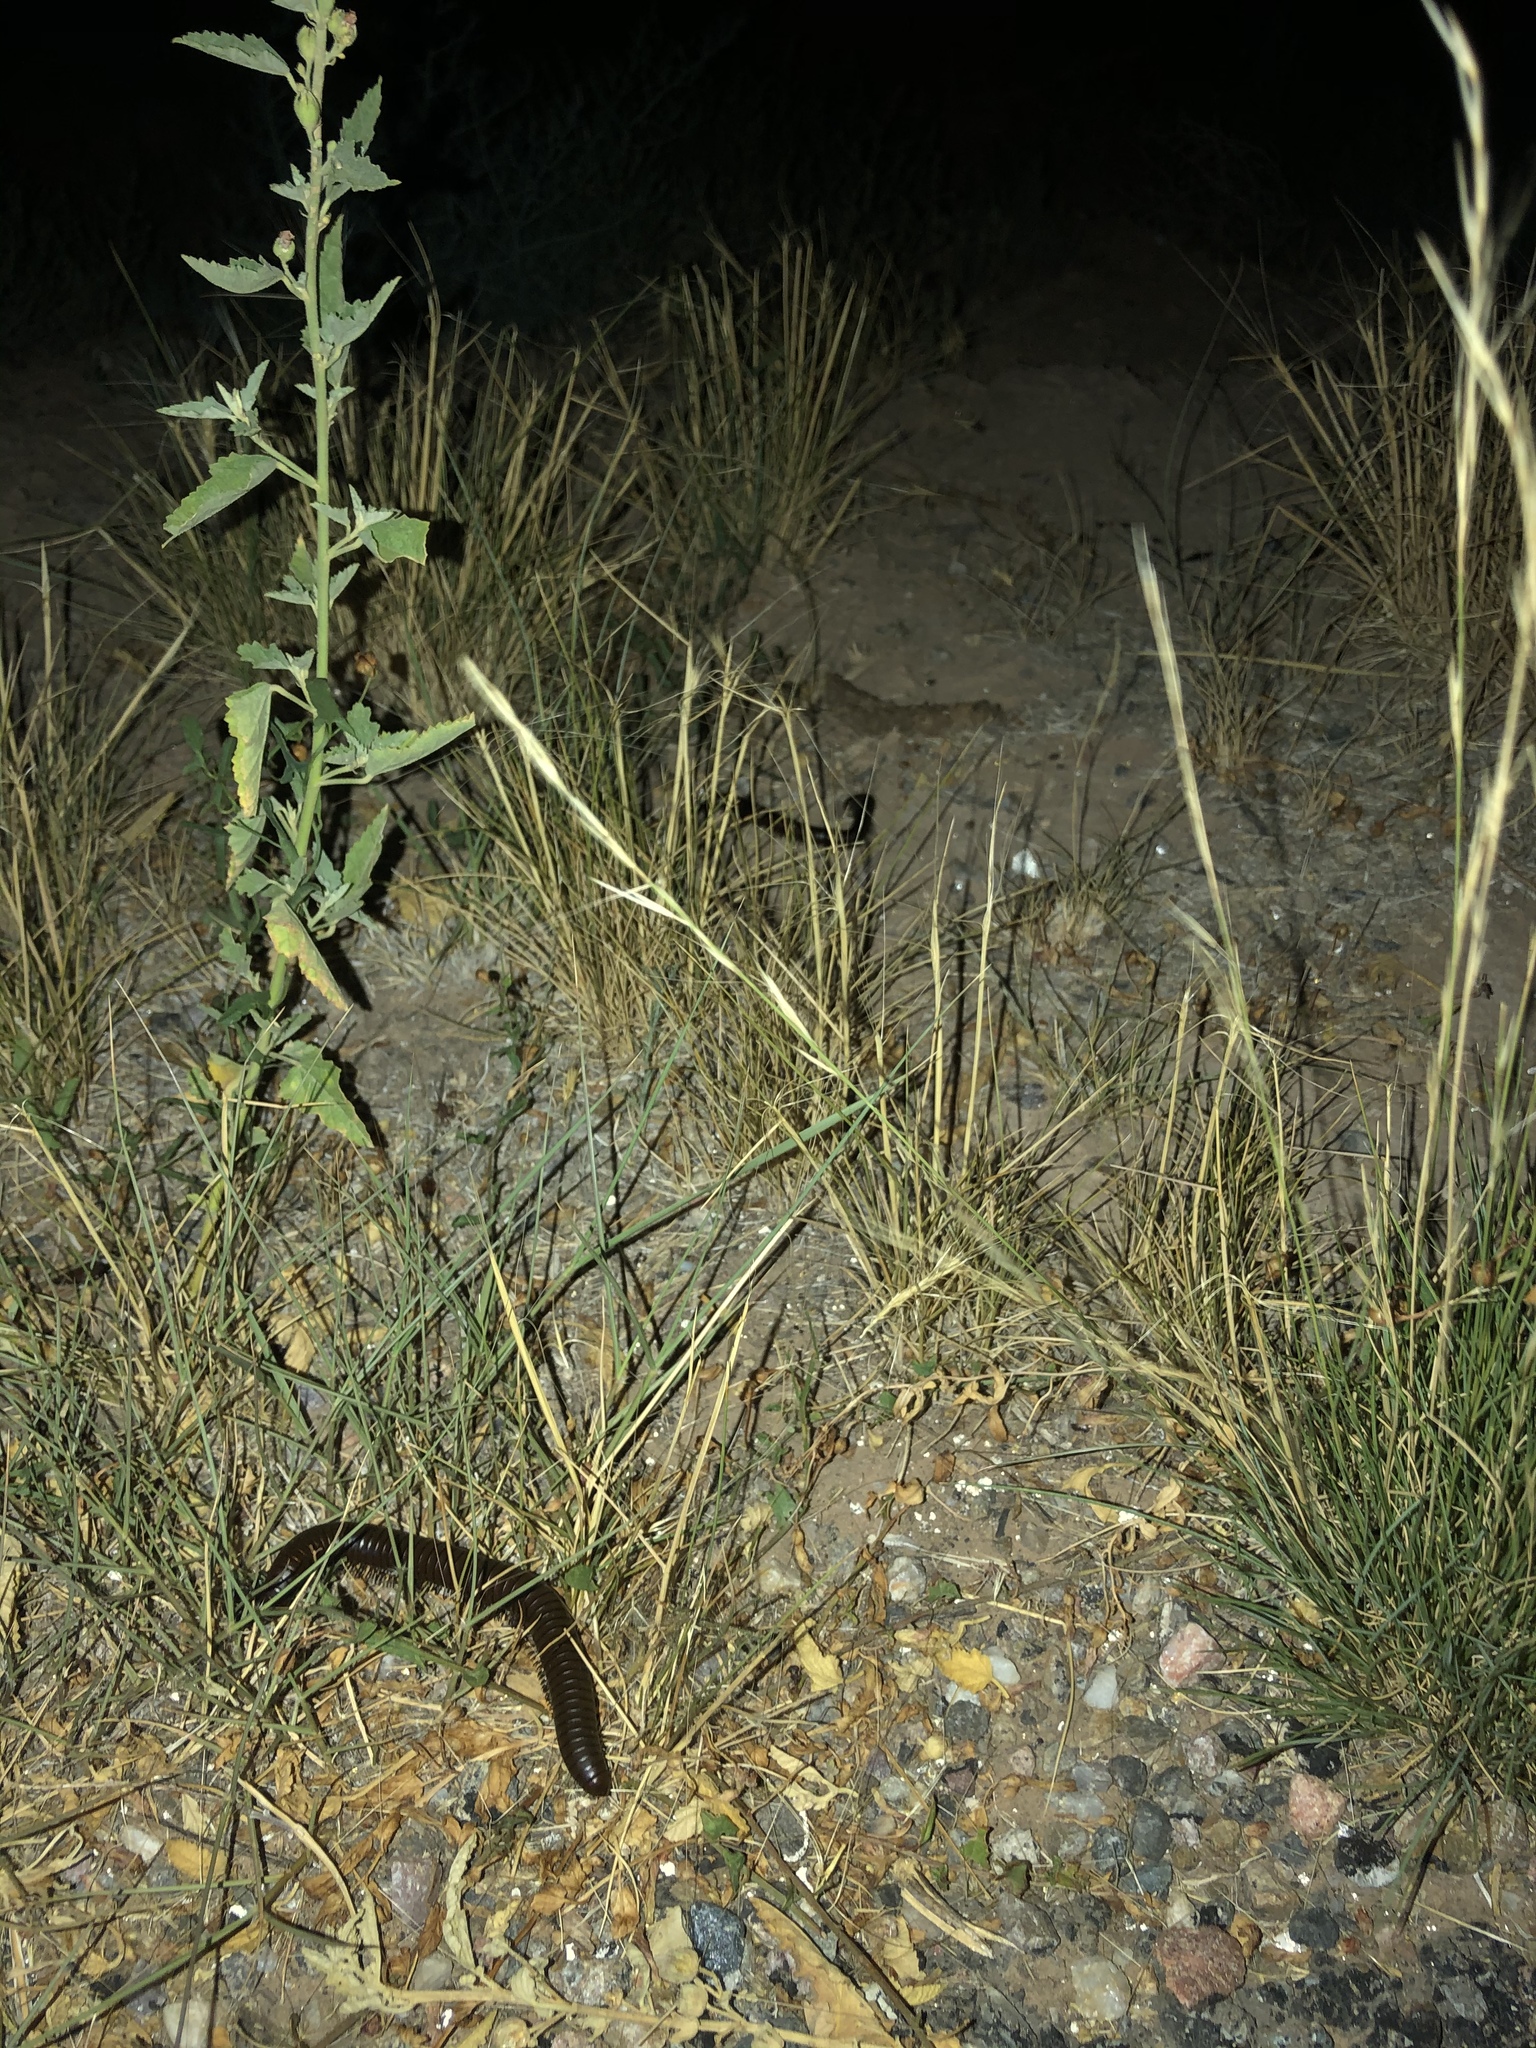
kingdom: Animalia
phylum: Arthropoda
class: Diplopoda
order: Spirostreptida
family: Spirostreptidae
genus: Orthoporus
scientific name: Orthoporus ornatus
